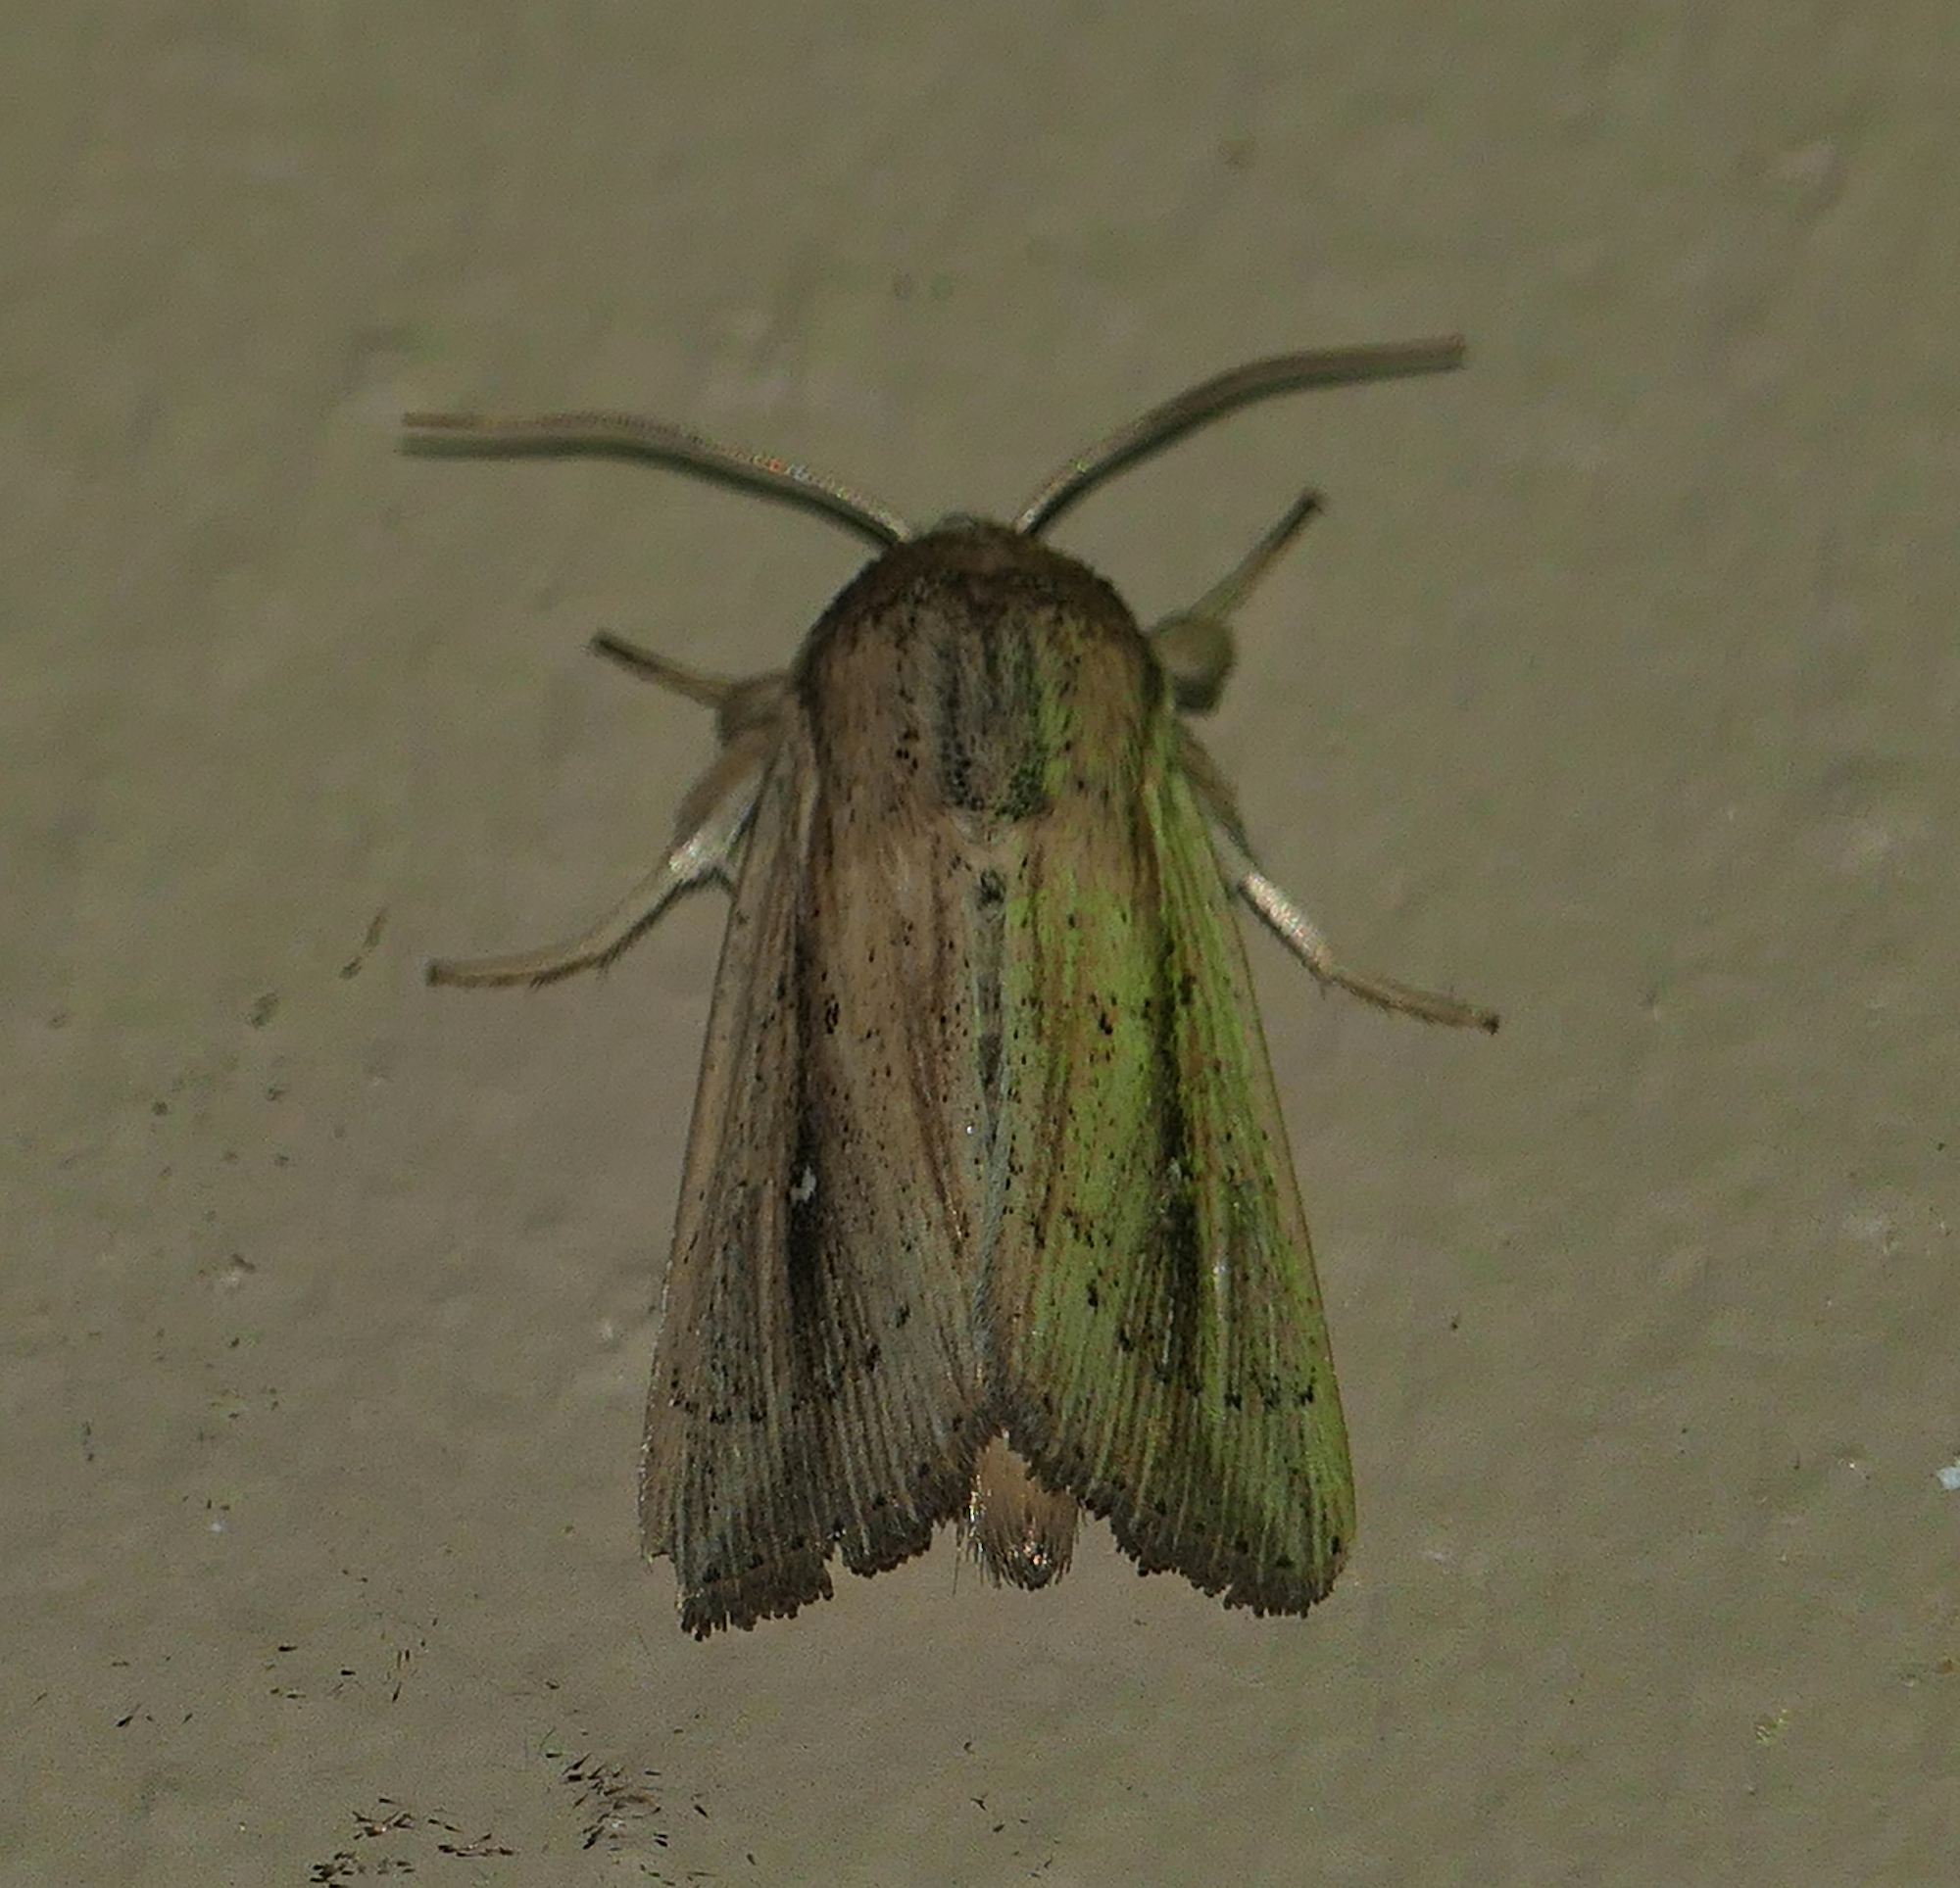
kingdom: Animalia
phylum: Arthropoda
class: Insecta
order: Lepidoptera
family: Noctuidae
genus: Leucania
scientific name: Leucania incognita
